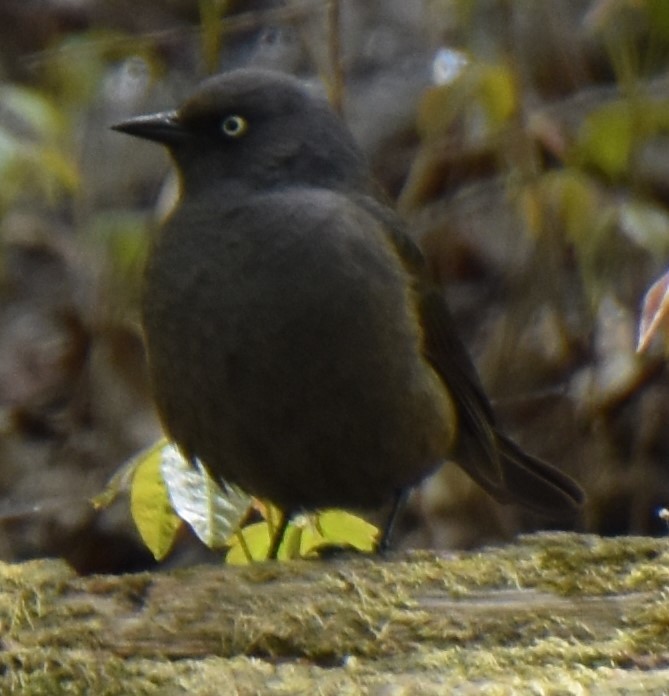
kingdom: Animalia
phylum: Chordata
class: Aves
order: Passeriformes
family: Icteridae
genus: Euphagus
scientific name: Euphagus carolinus
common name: Rusty blackbird
